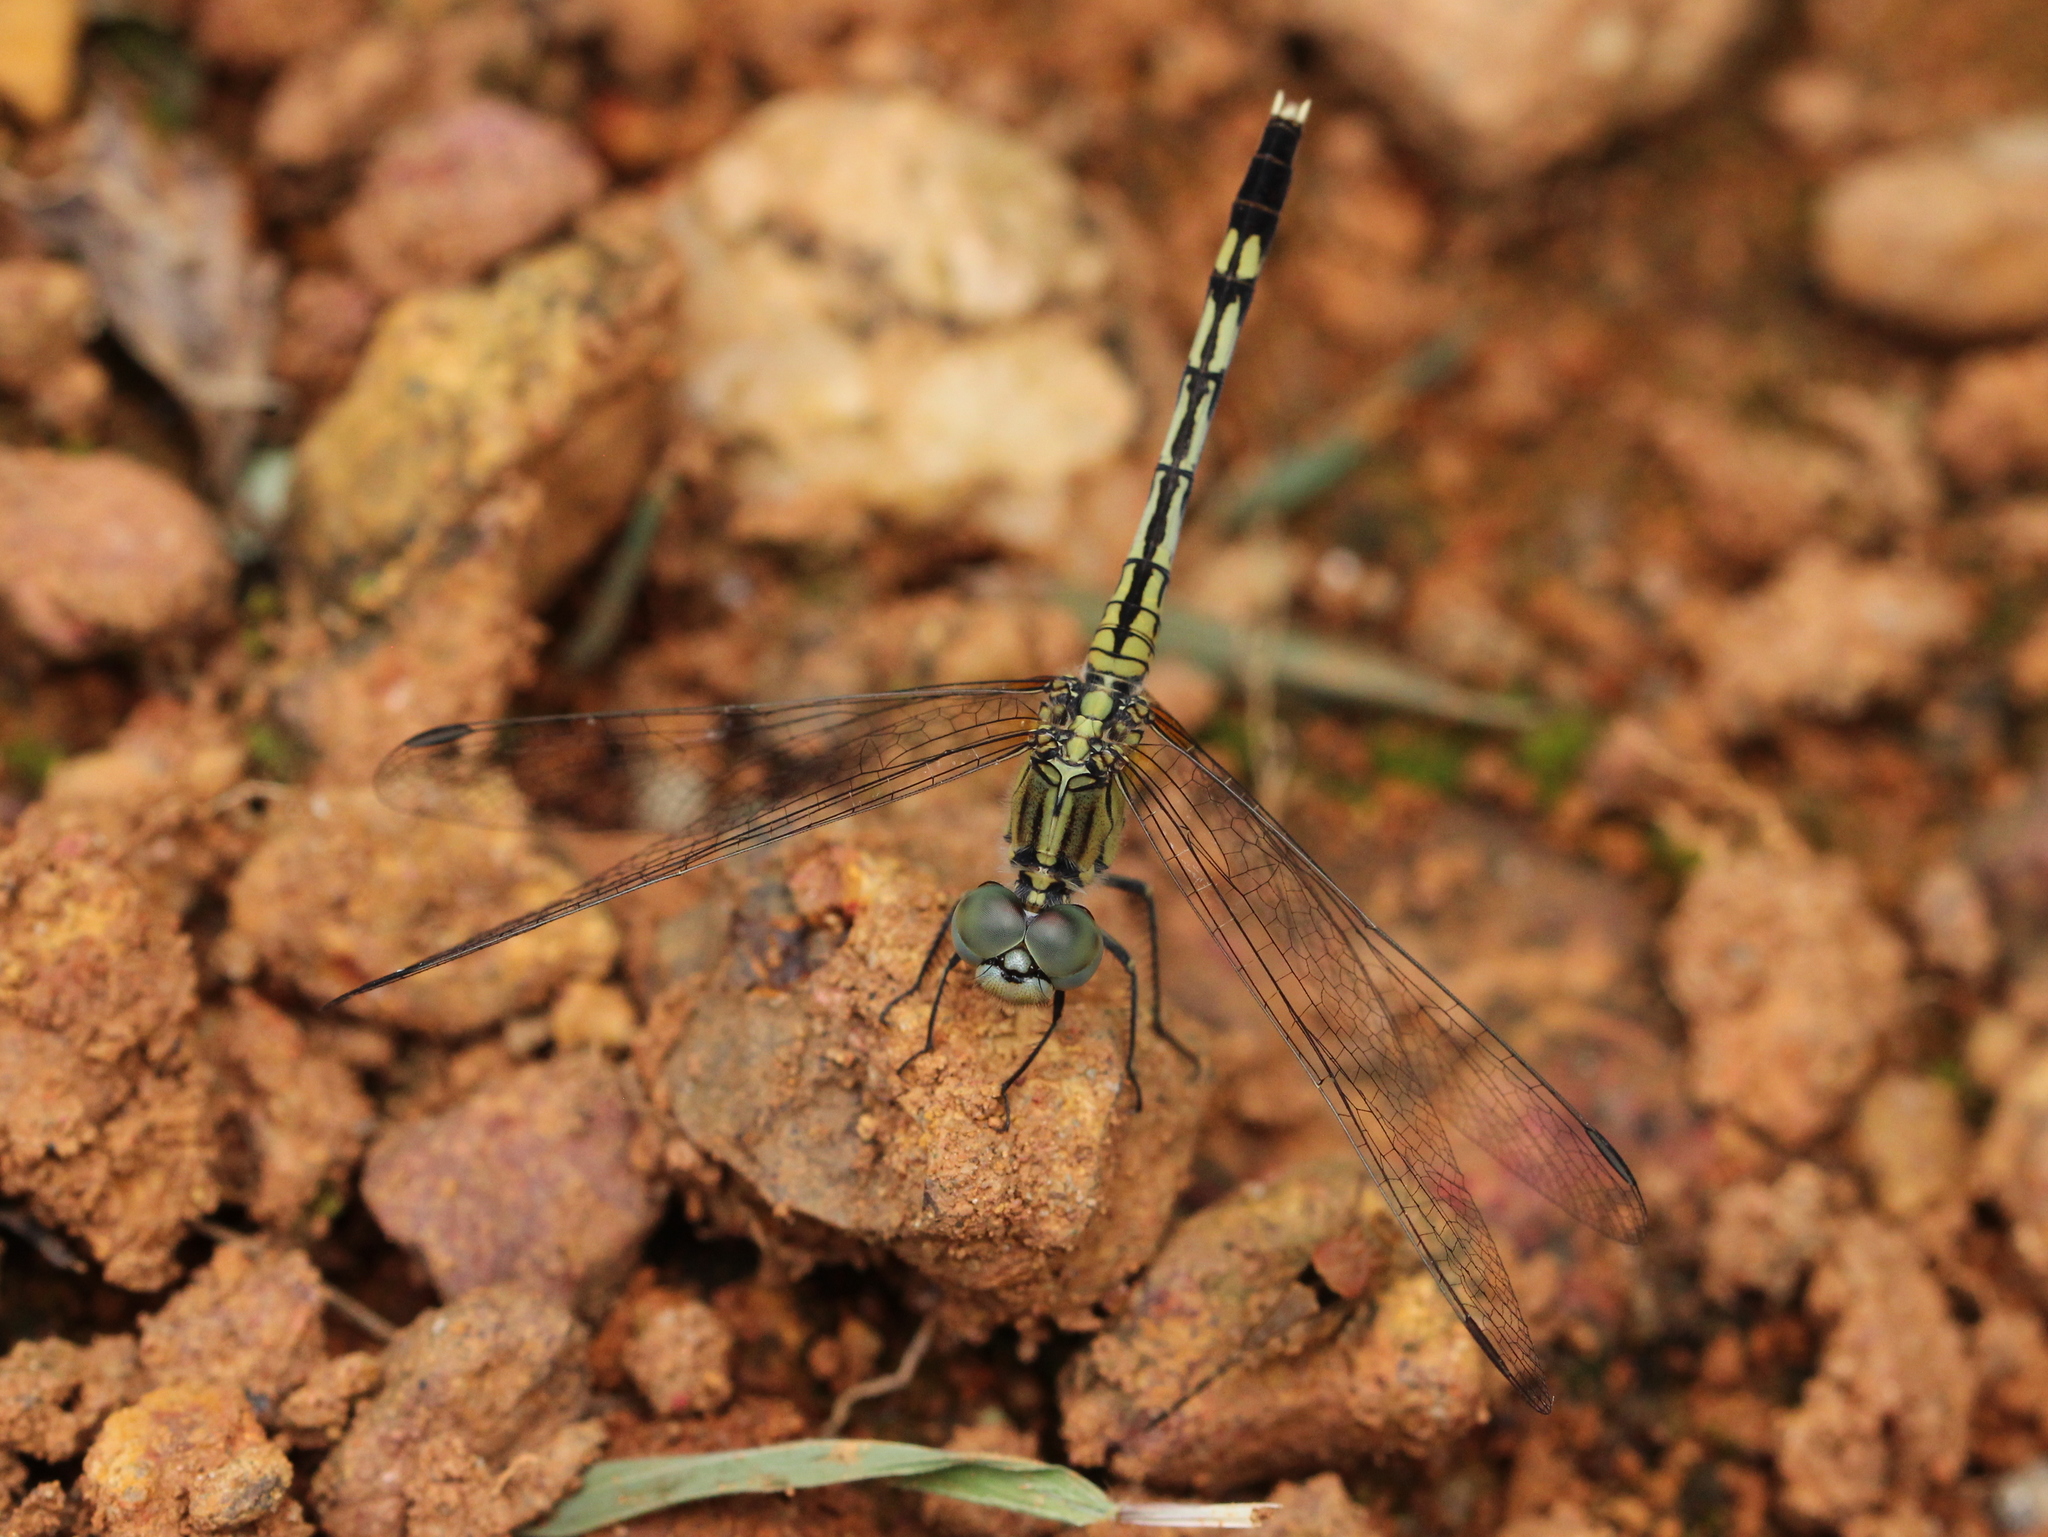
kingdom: Animalia
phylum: Arthropoda
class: Insecta
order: Odonata
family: Libellulidae
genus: Diplacodes
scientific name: Diplacodes trivialis
